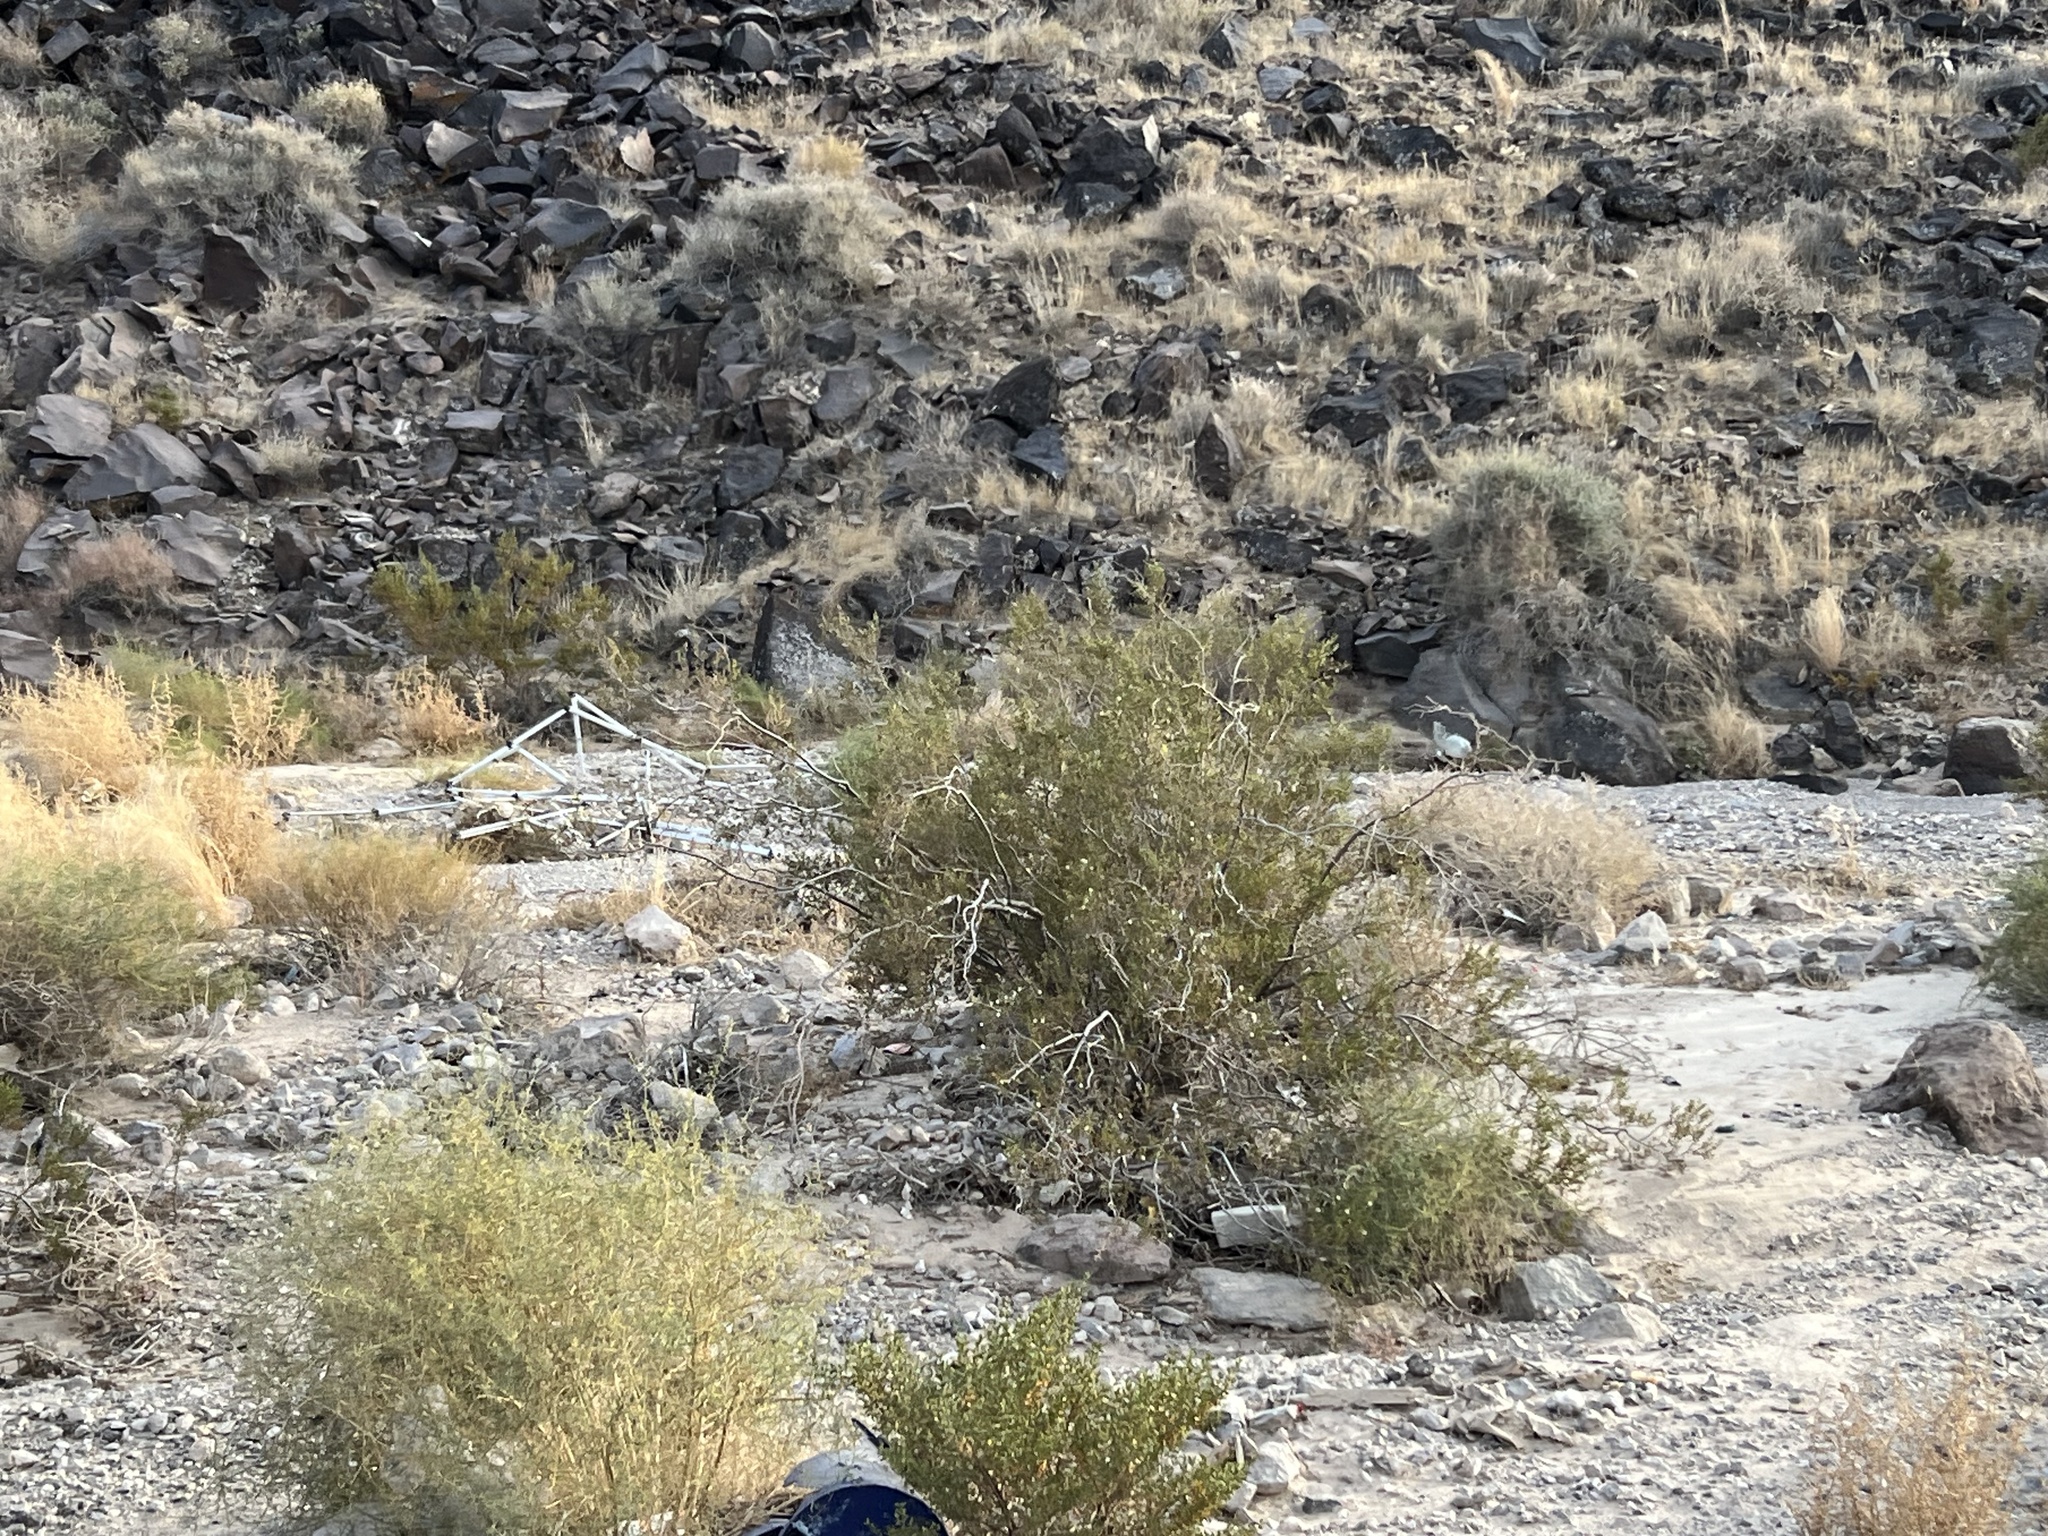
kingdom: Plantae
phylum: Tracheophyta
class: Magnoliopsida
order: Zygophyllales
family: Zygophyllaceae
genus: Larrea
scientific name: Larrea tridentata
